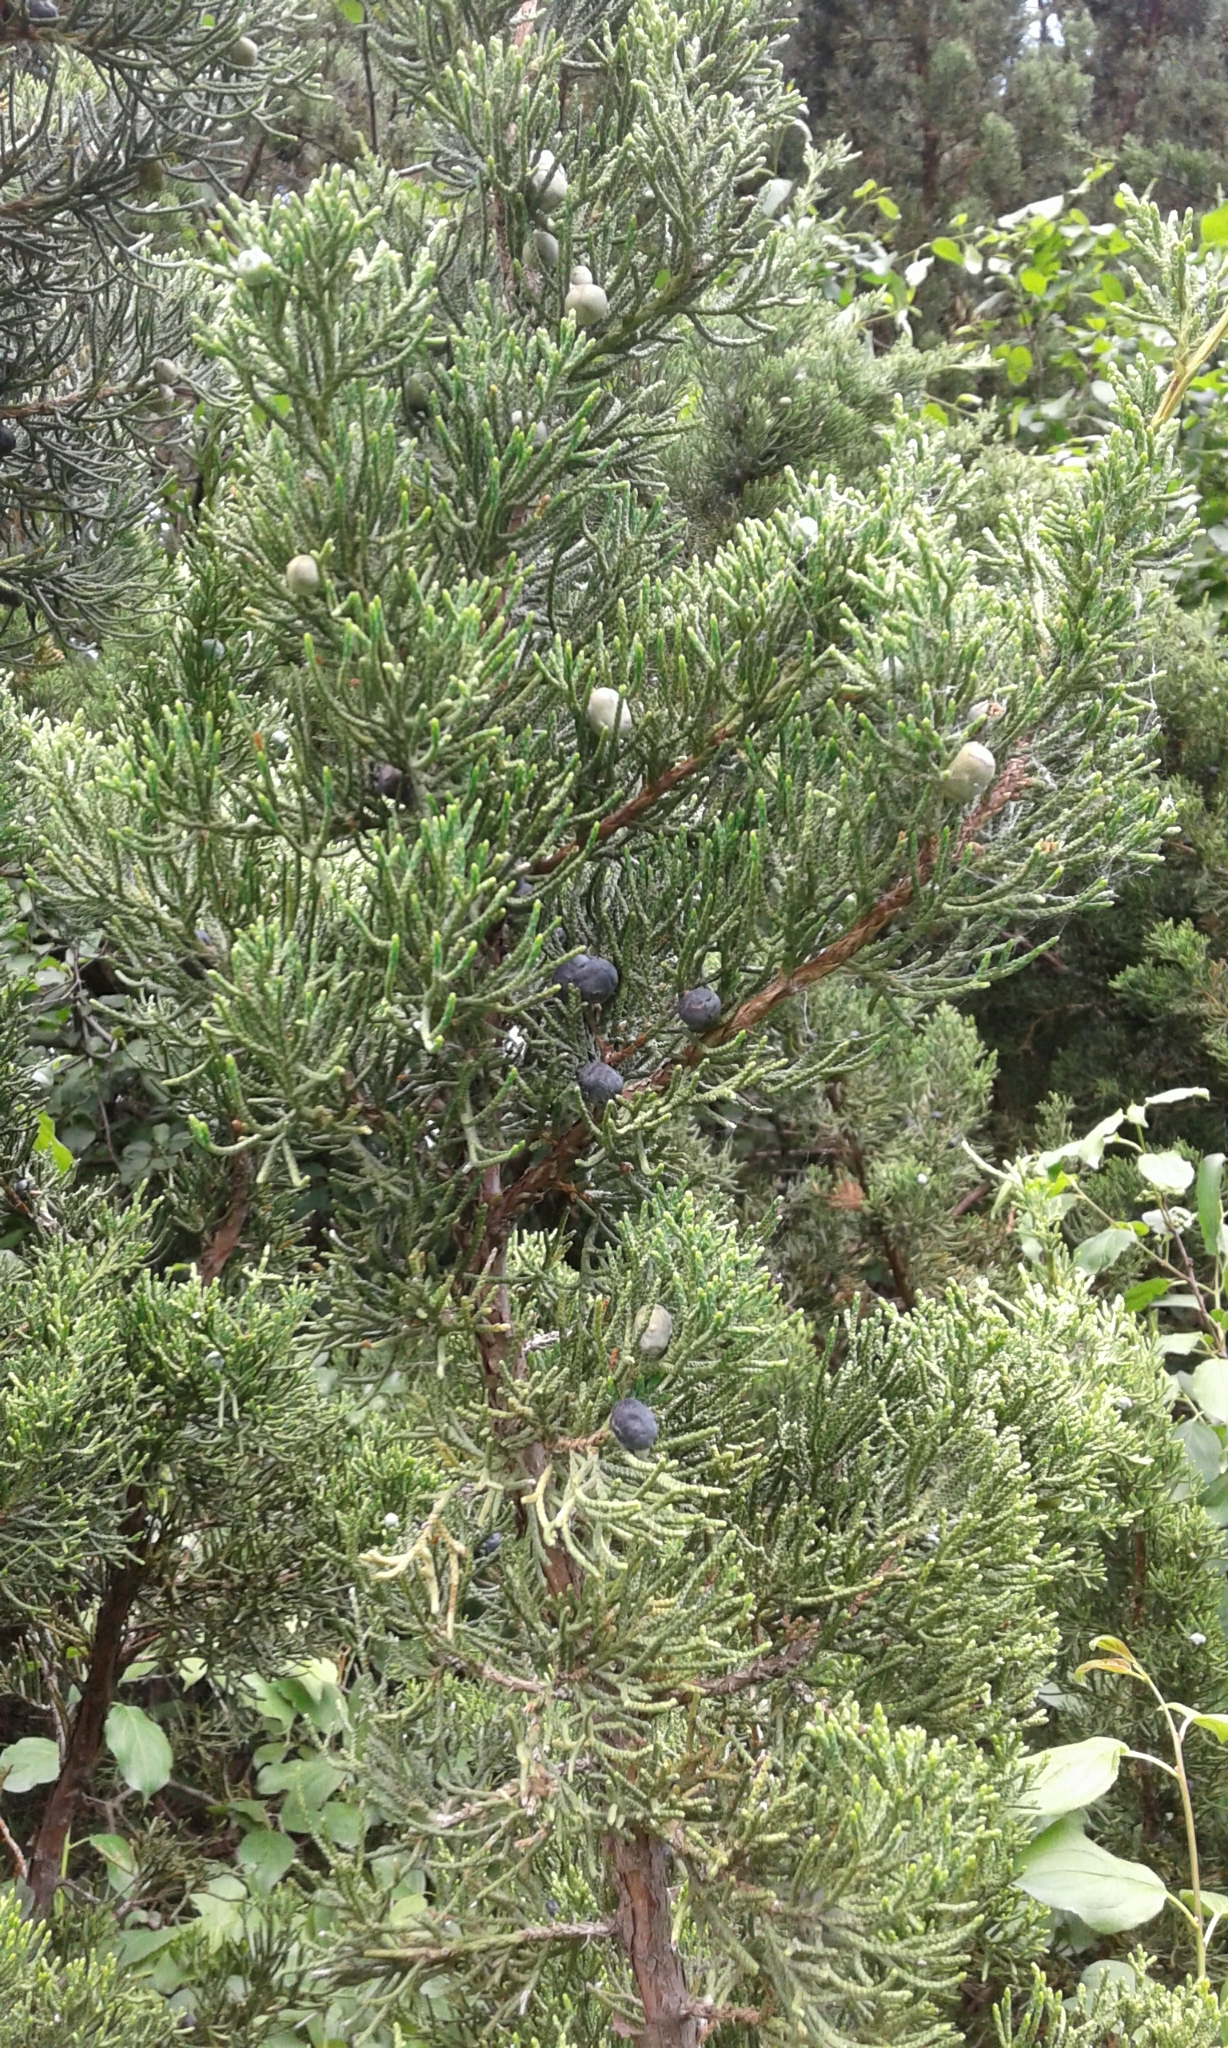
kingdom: Plantae
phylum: Tracheophyta
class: Pinopsida
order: Pinales
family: Cupressaceae
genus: Juniperus
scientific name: Juniperus virginiana
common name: Red juniper
